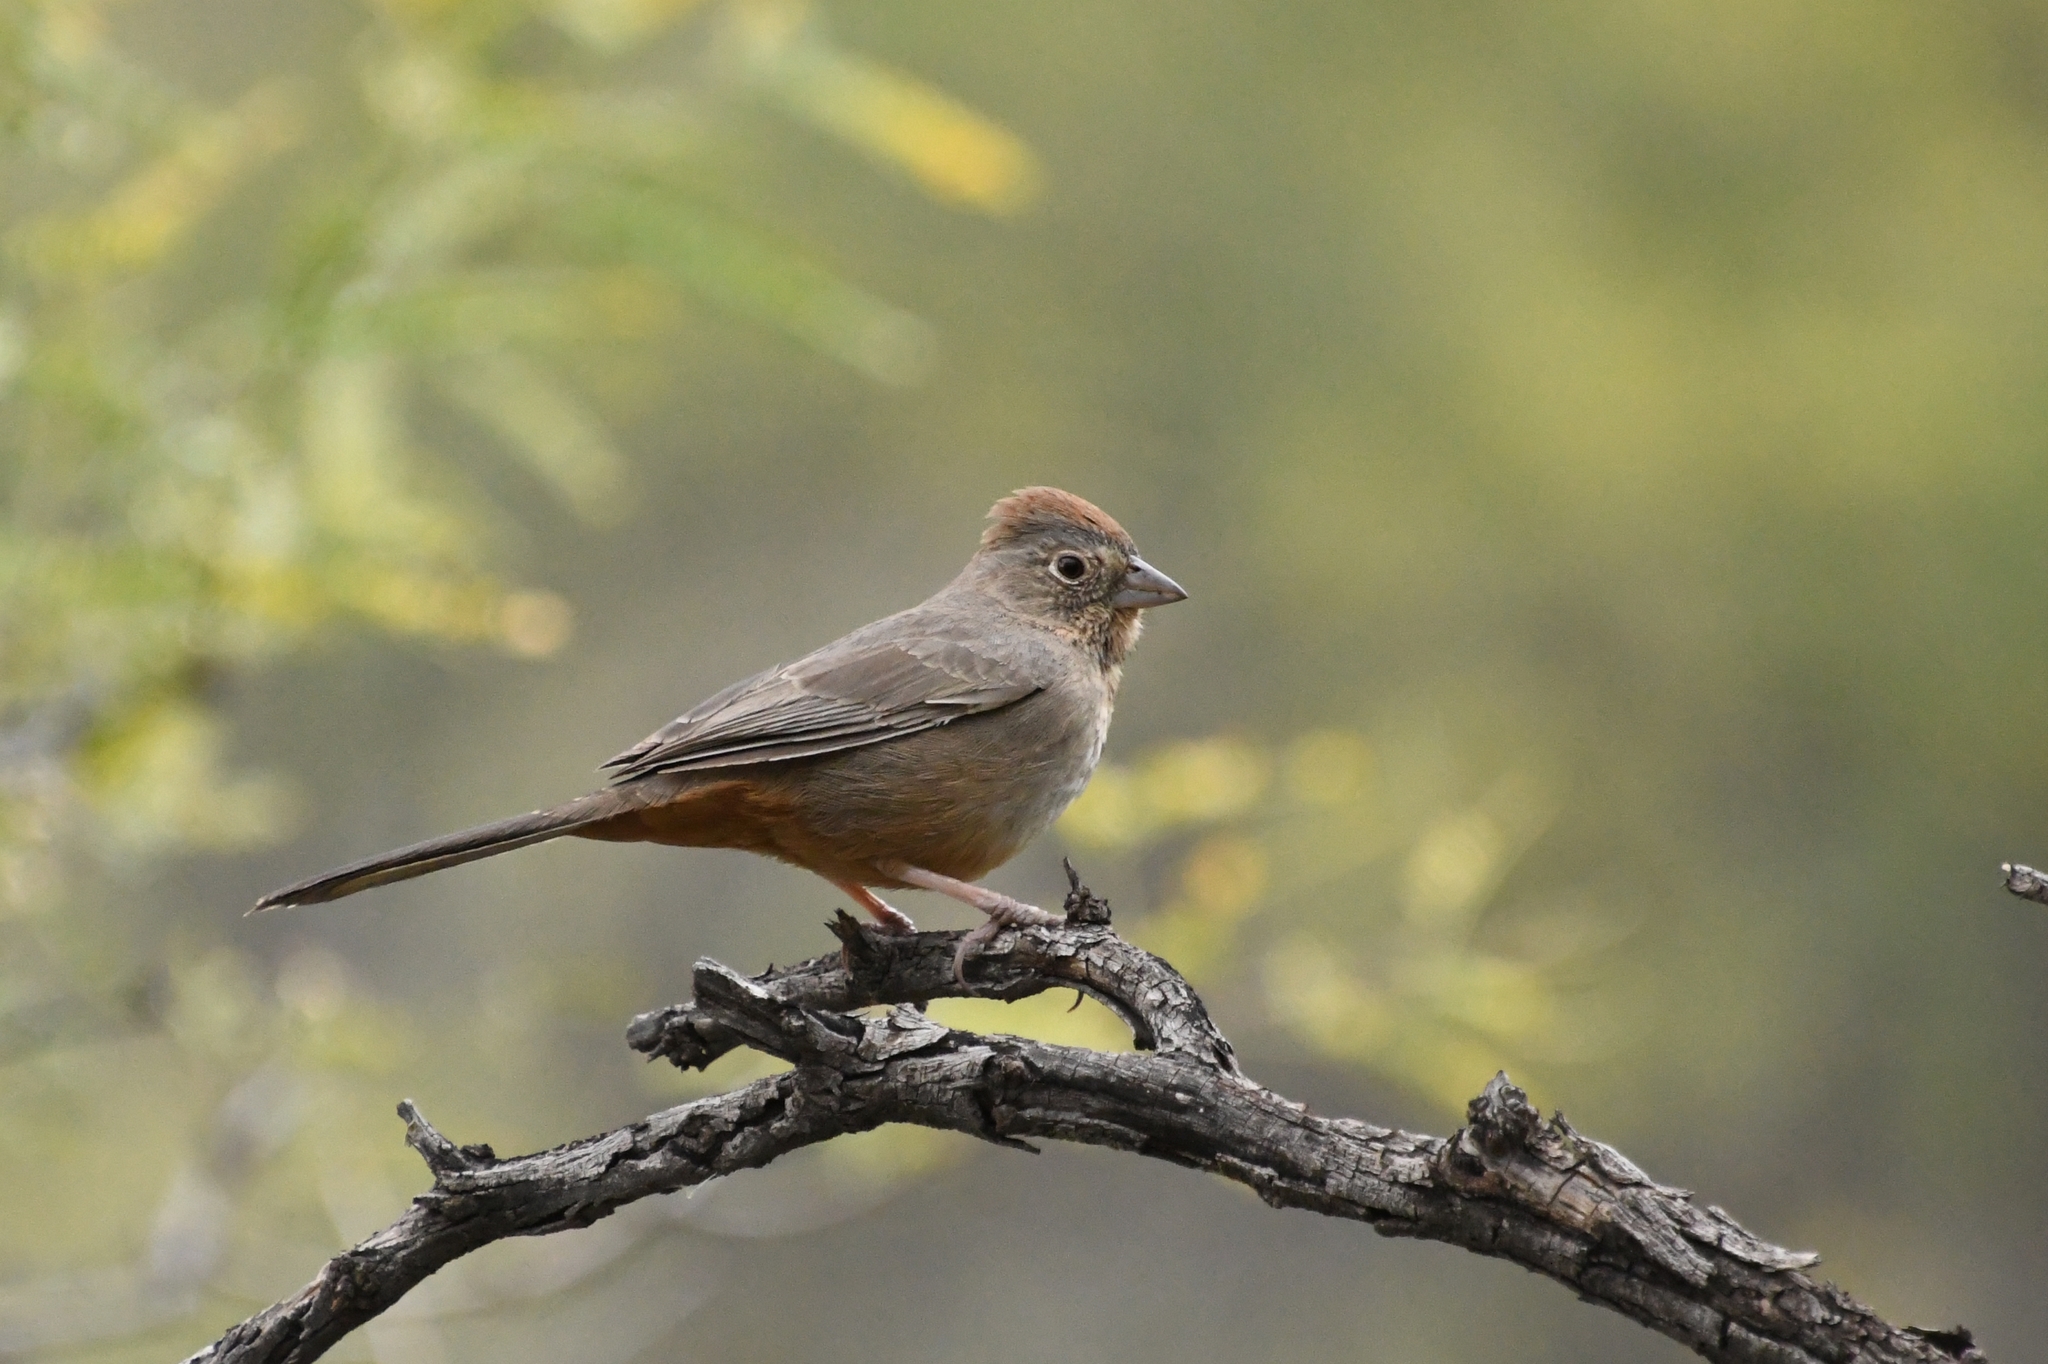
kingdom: Animalia
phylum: Chordata
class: Aves
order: Passeriformes
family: Passerellidae
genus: Melozone
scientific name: Melozone fusca
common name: Canyon towhee
